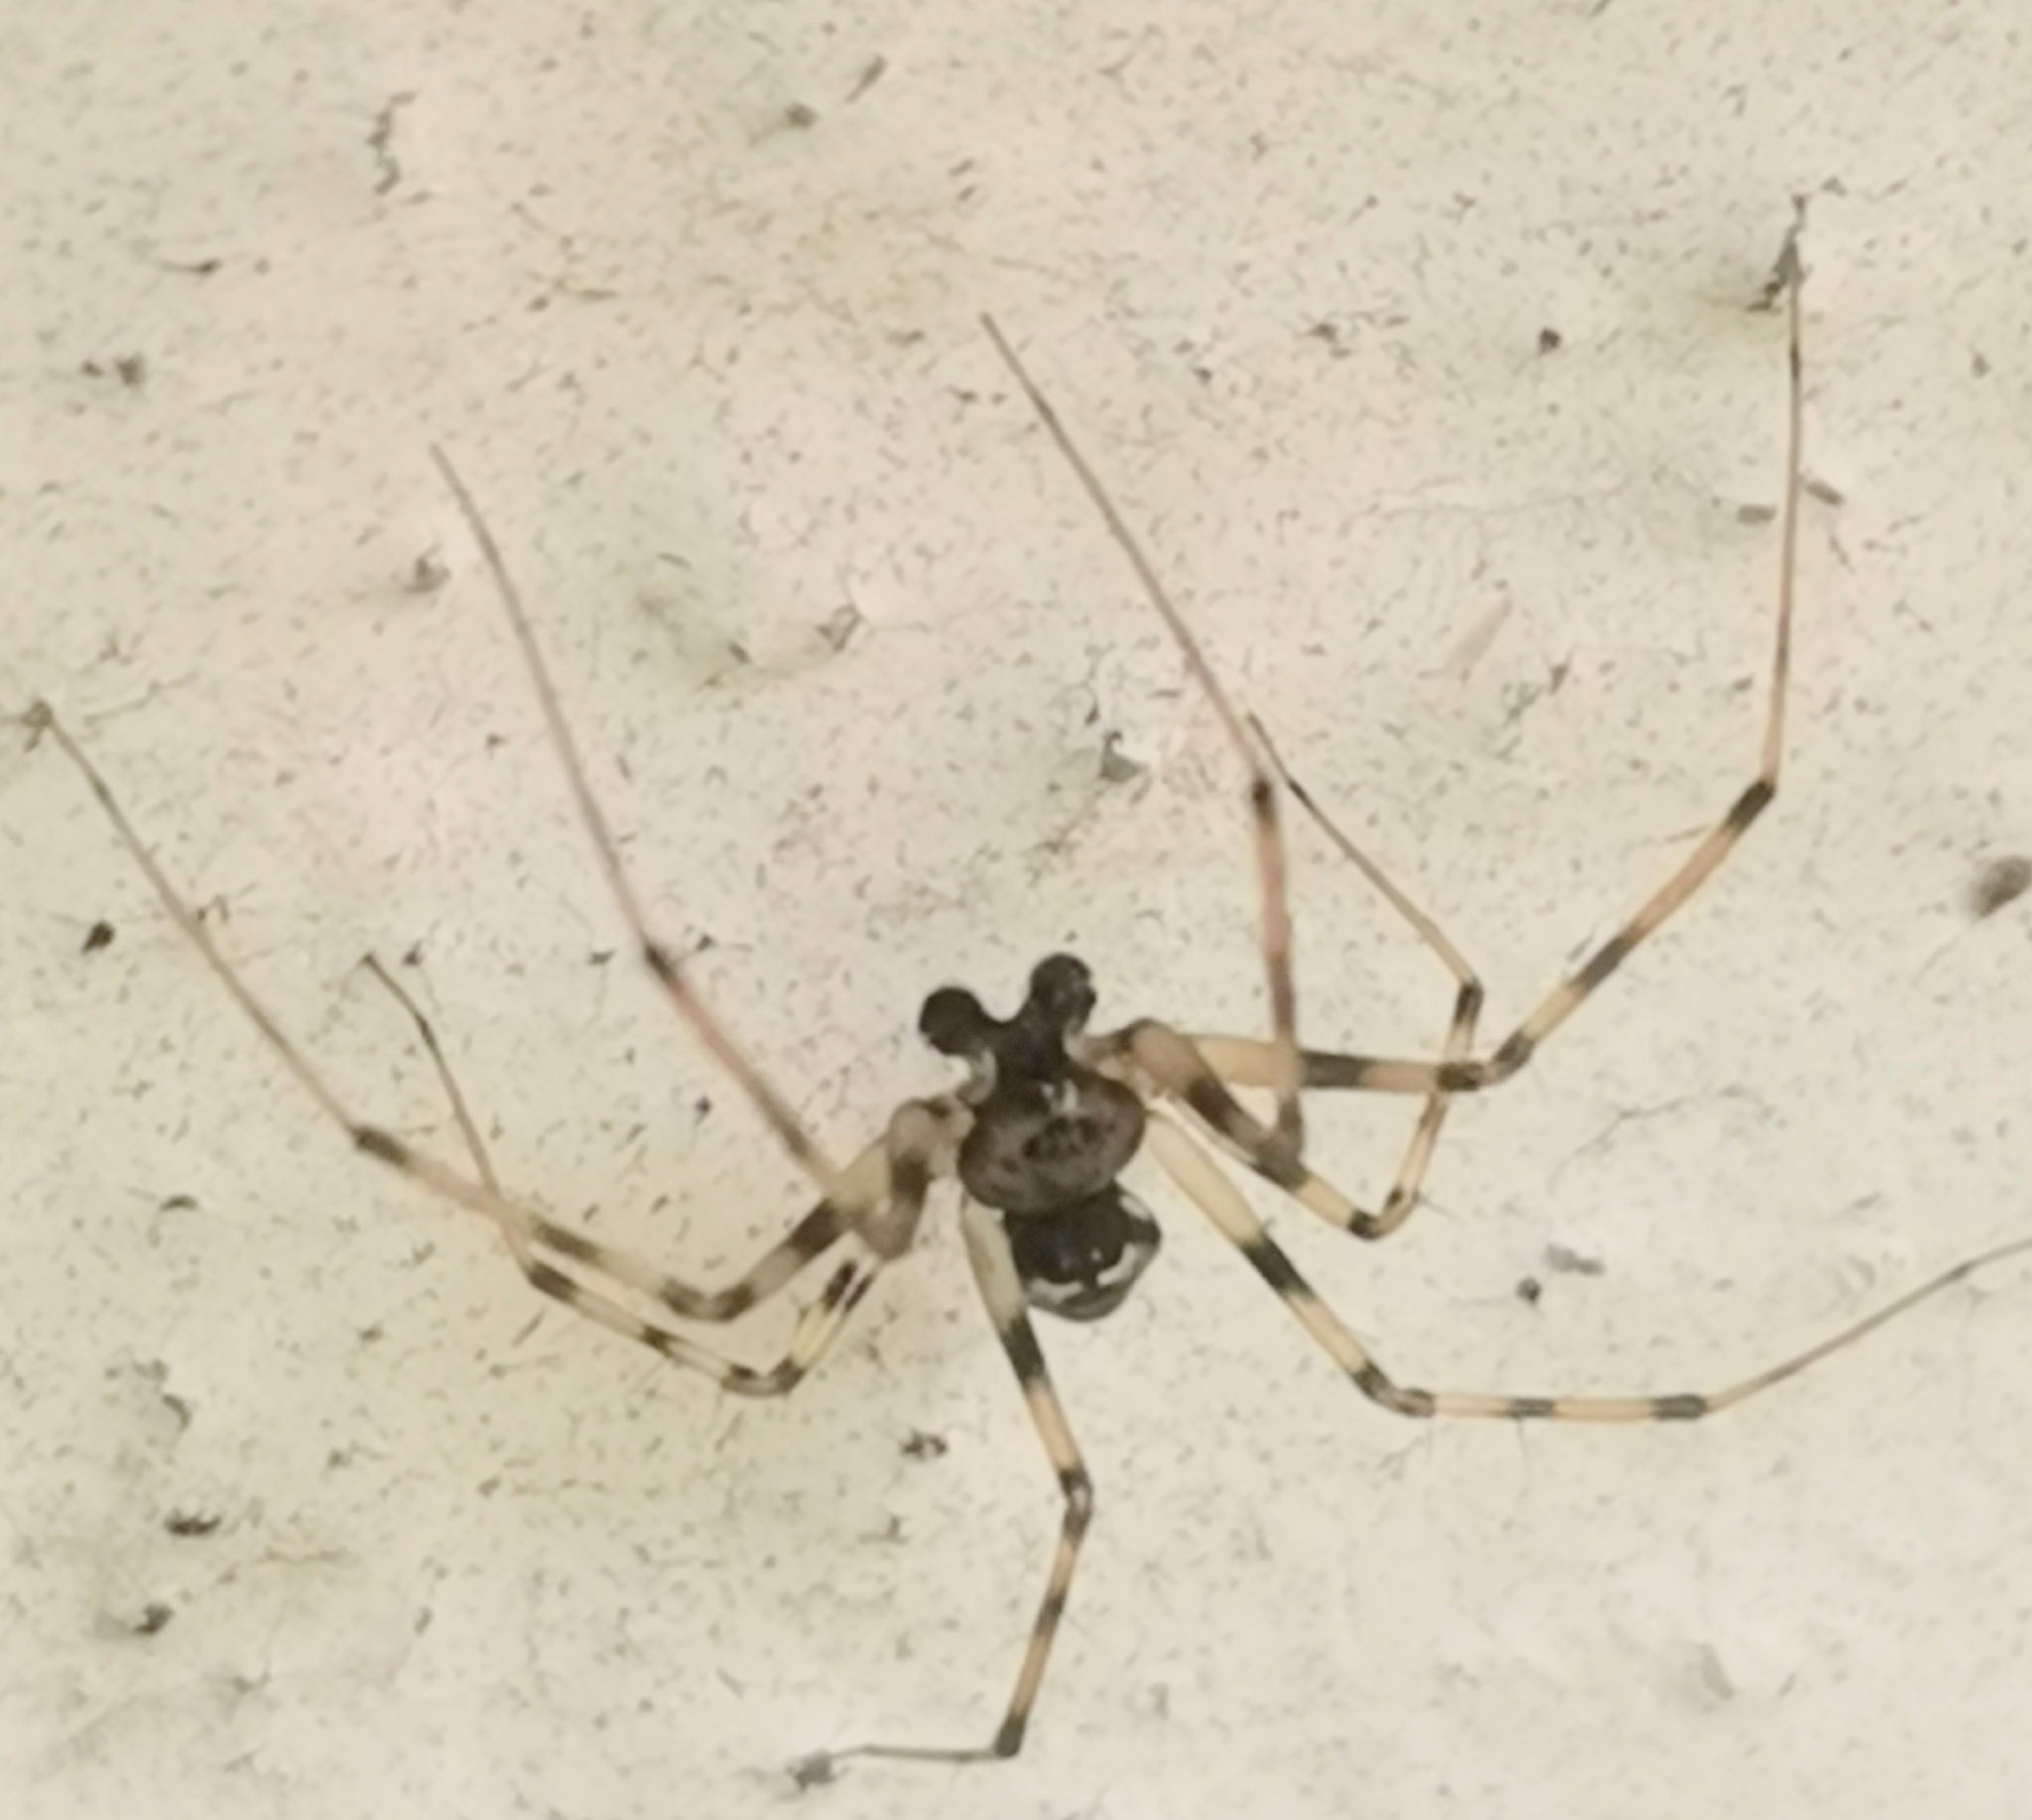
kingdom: Animalia
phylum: Arthropoda
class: Arachnida
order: Araneae
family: Linyphiidae
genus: Drapetisca
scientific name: Drapetisca socialis
